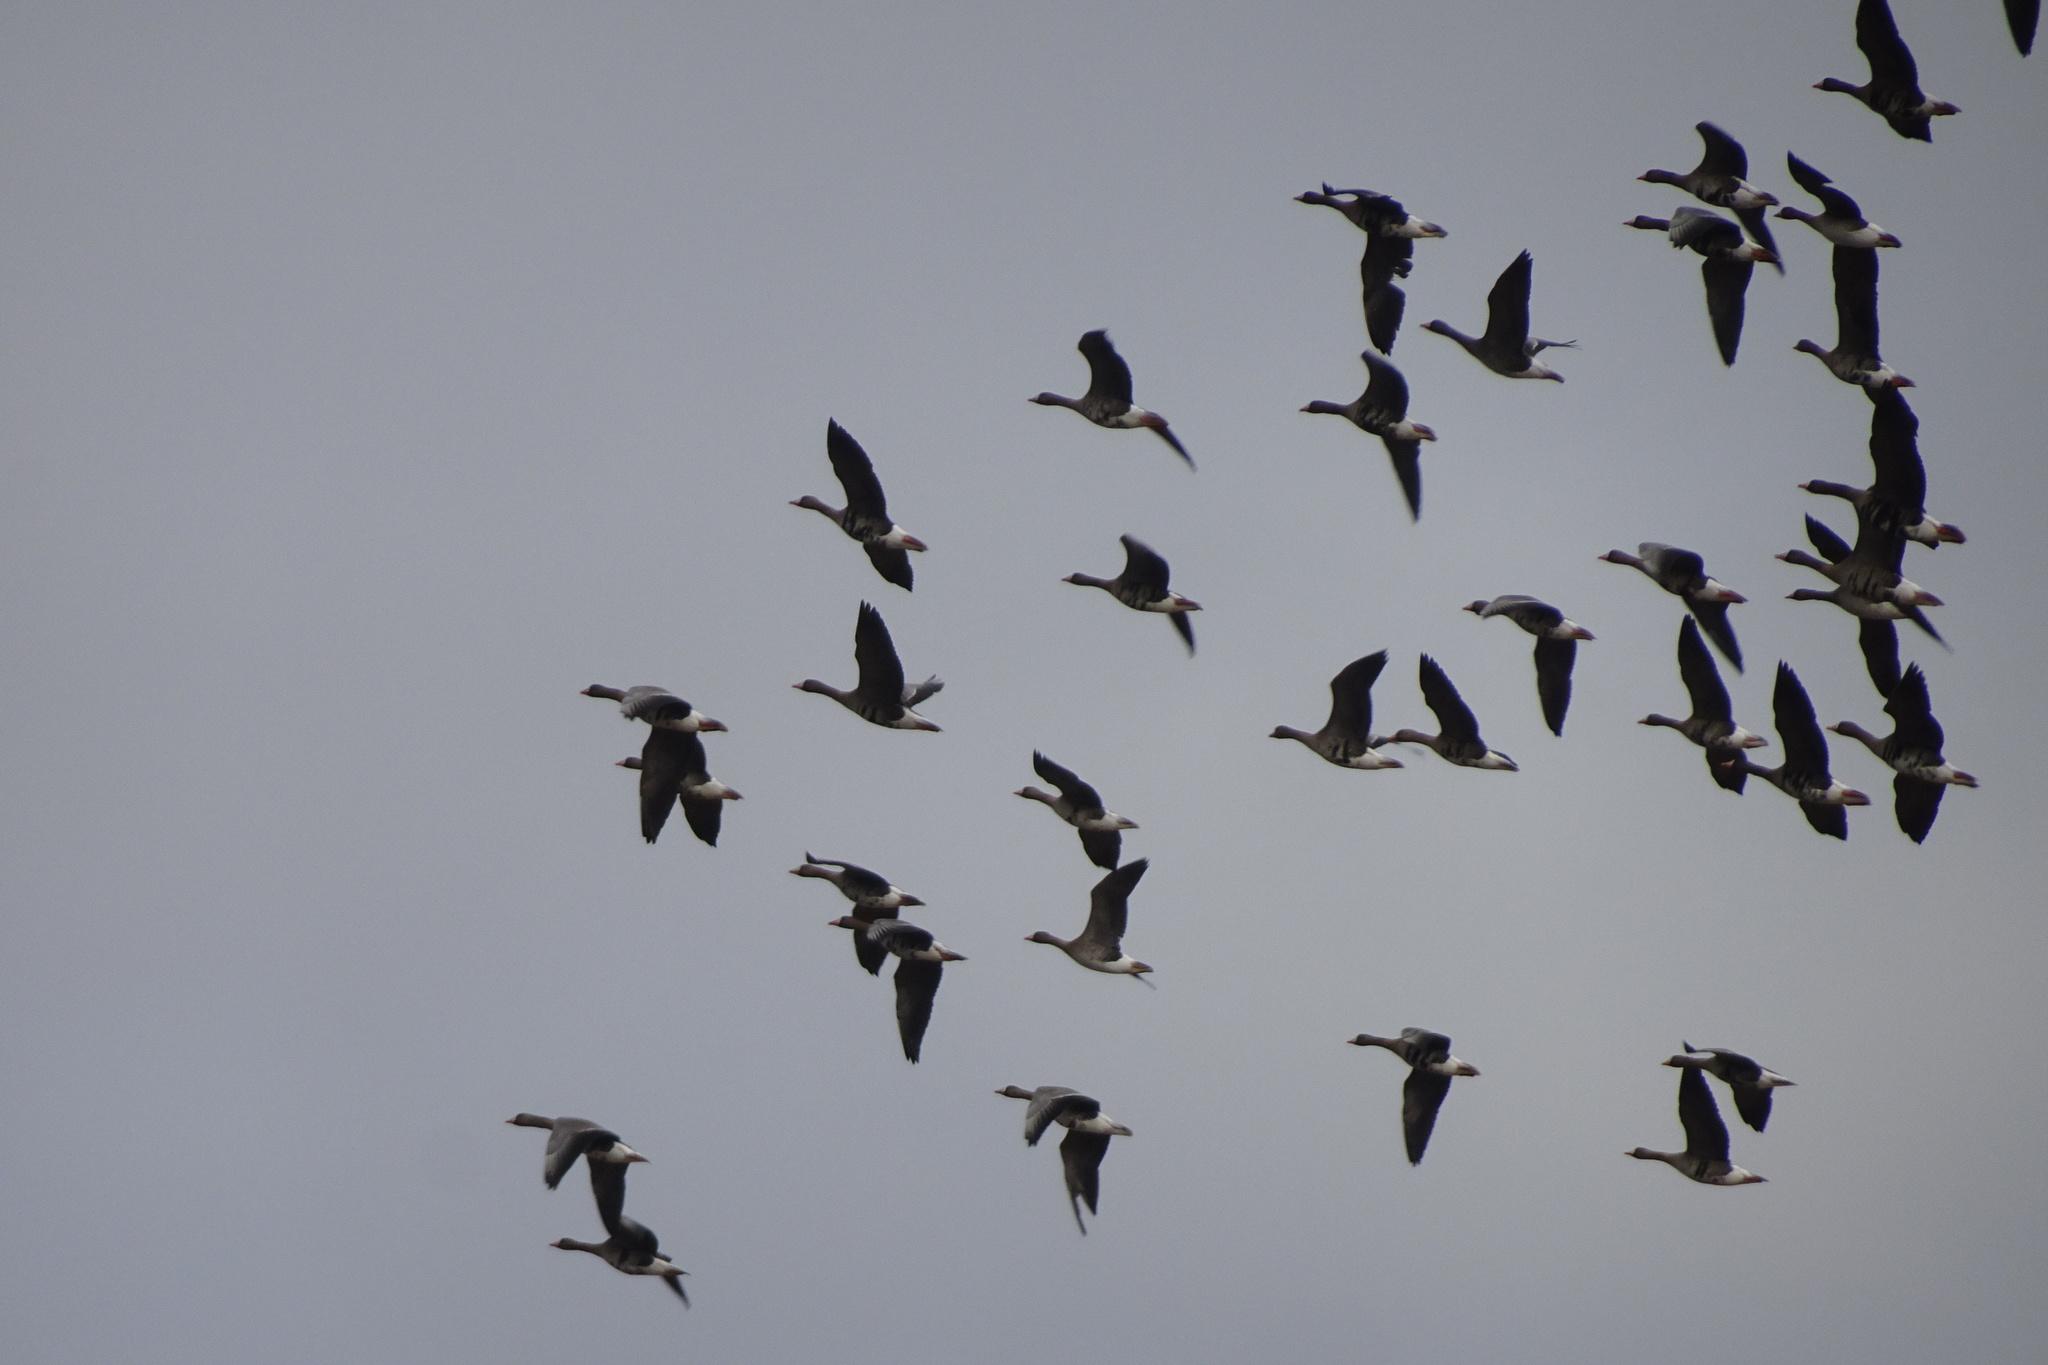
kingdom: Animalia
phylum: Chordata
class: Aves
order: Anseriformes
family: Anatidae
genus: Anser
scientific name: Anser albifrons
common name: Greater white-fronted goose
